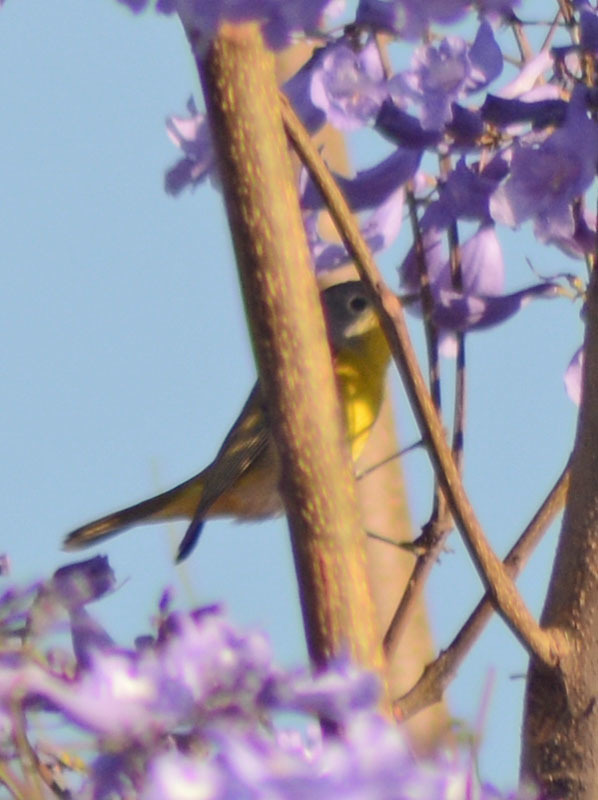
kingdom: Animalia
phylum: Chordata
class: Aves
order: Passeriformes
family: Parulidae
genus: Leiothlypis
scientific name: Leiothlypis ruficapilla
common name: Nashville warbler
